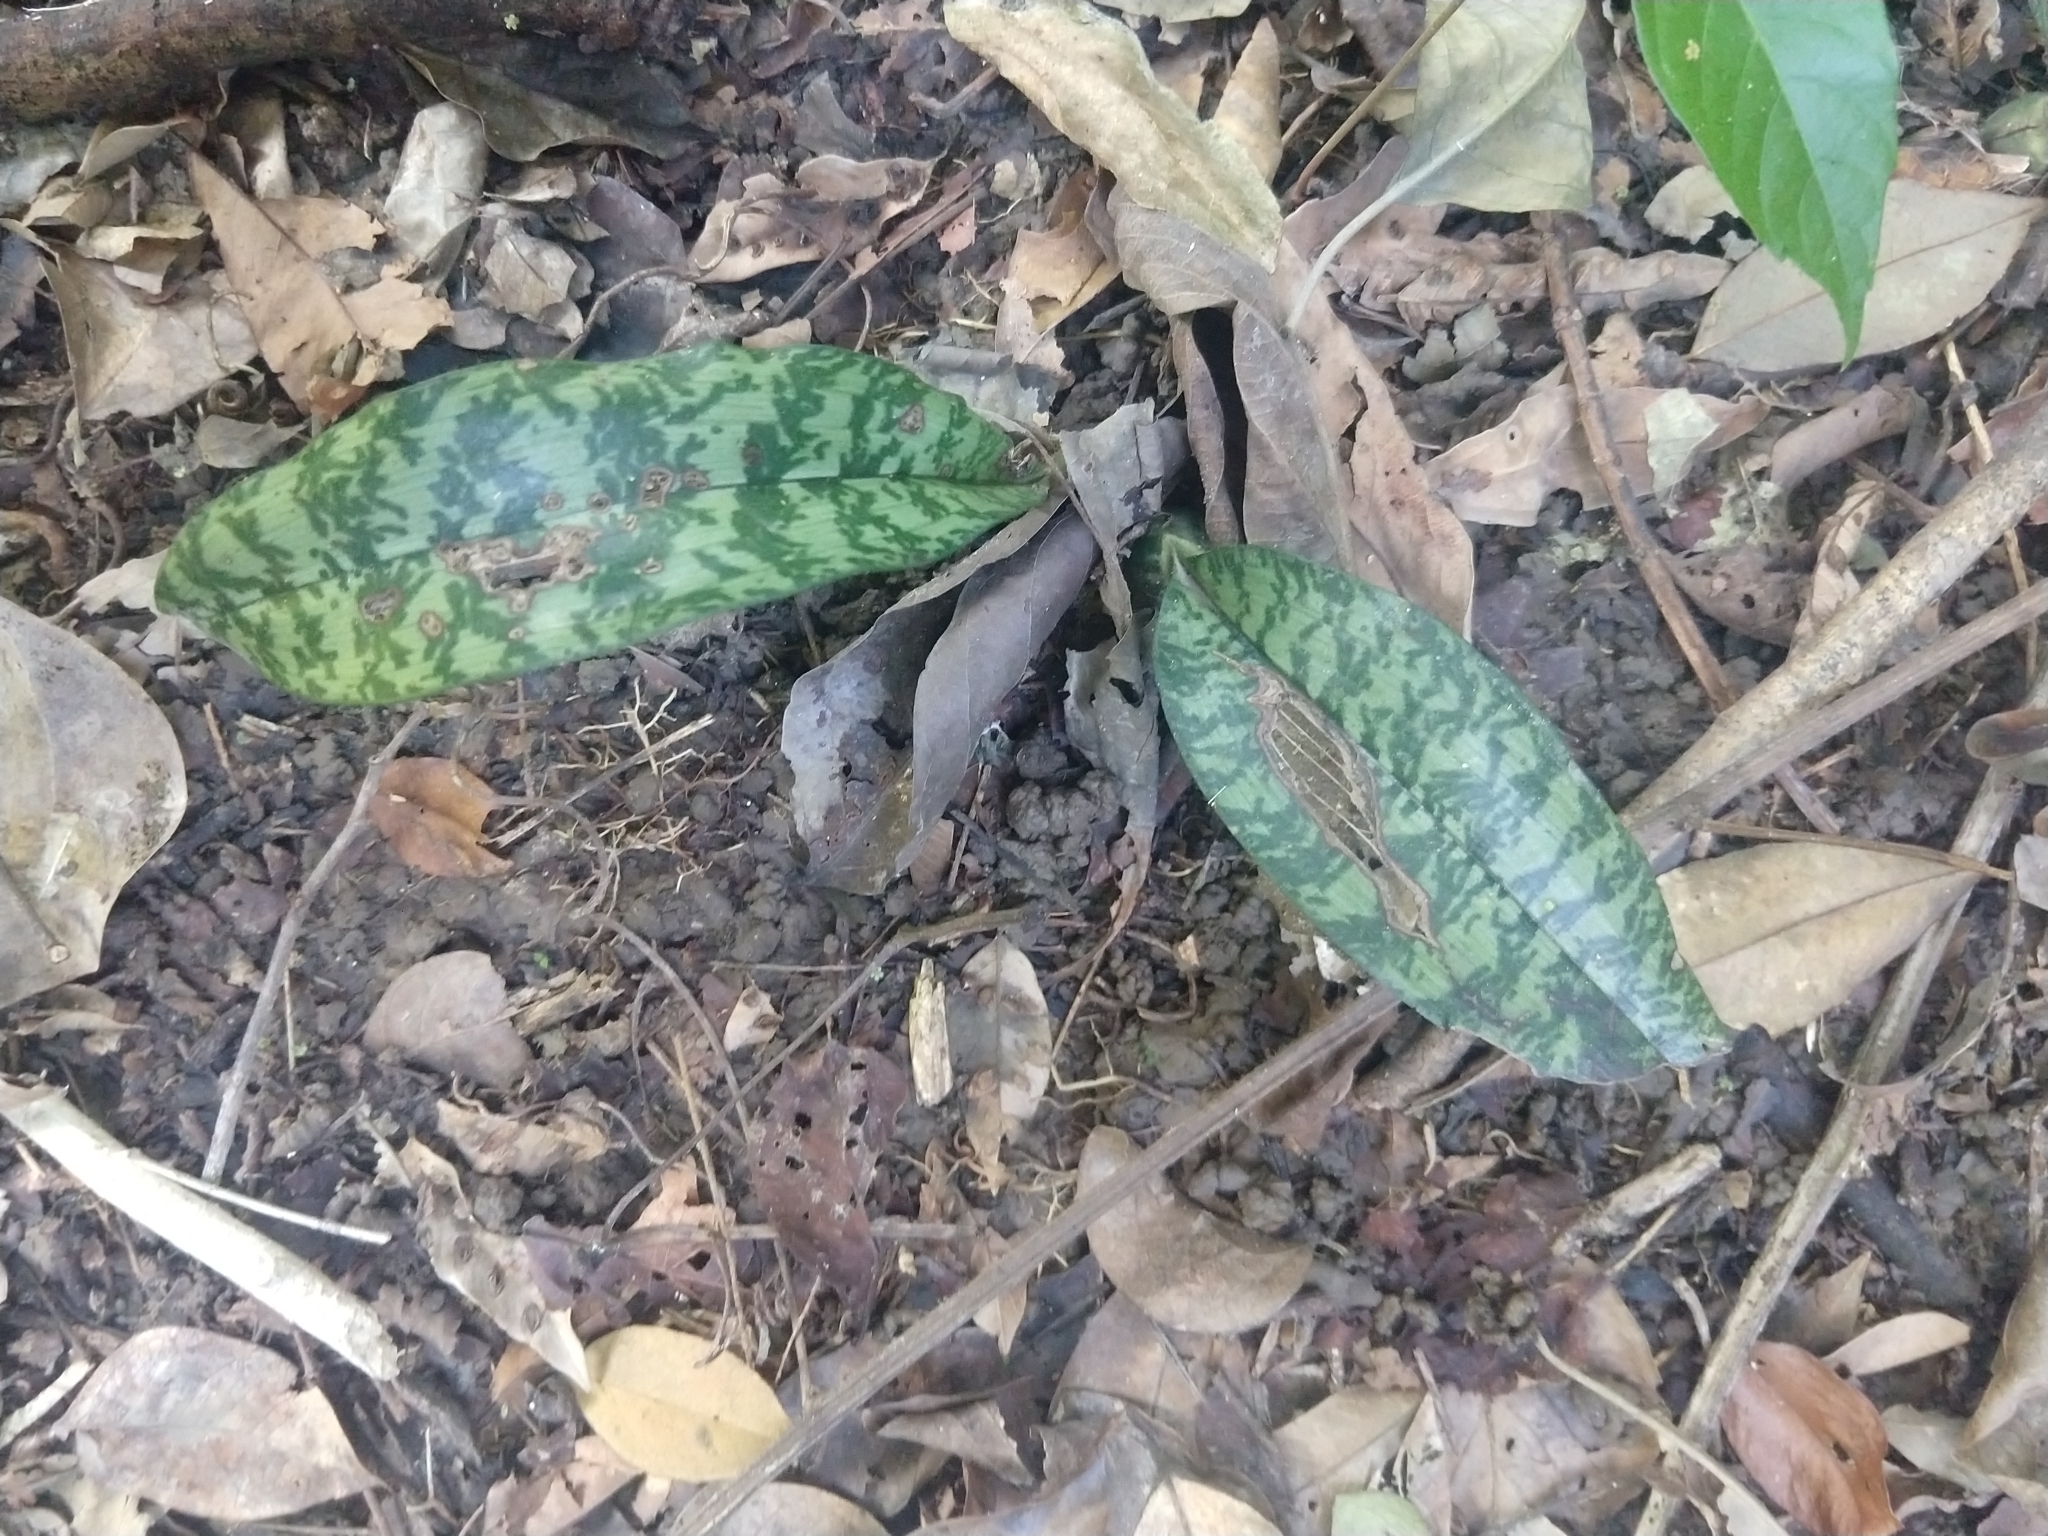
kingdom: Plantae
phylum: Tracheophyta
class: Liliopsida
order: Asparagales
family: Orchidaceae
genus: Eulophia
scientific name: Eulophia maculata
